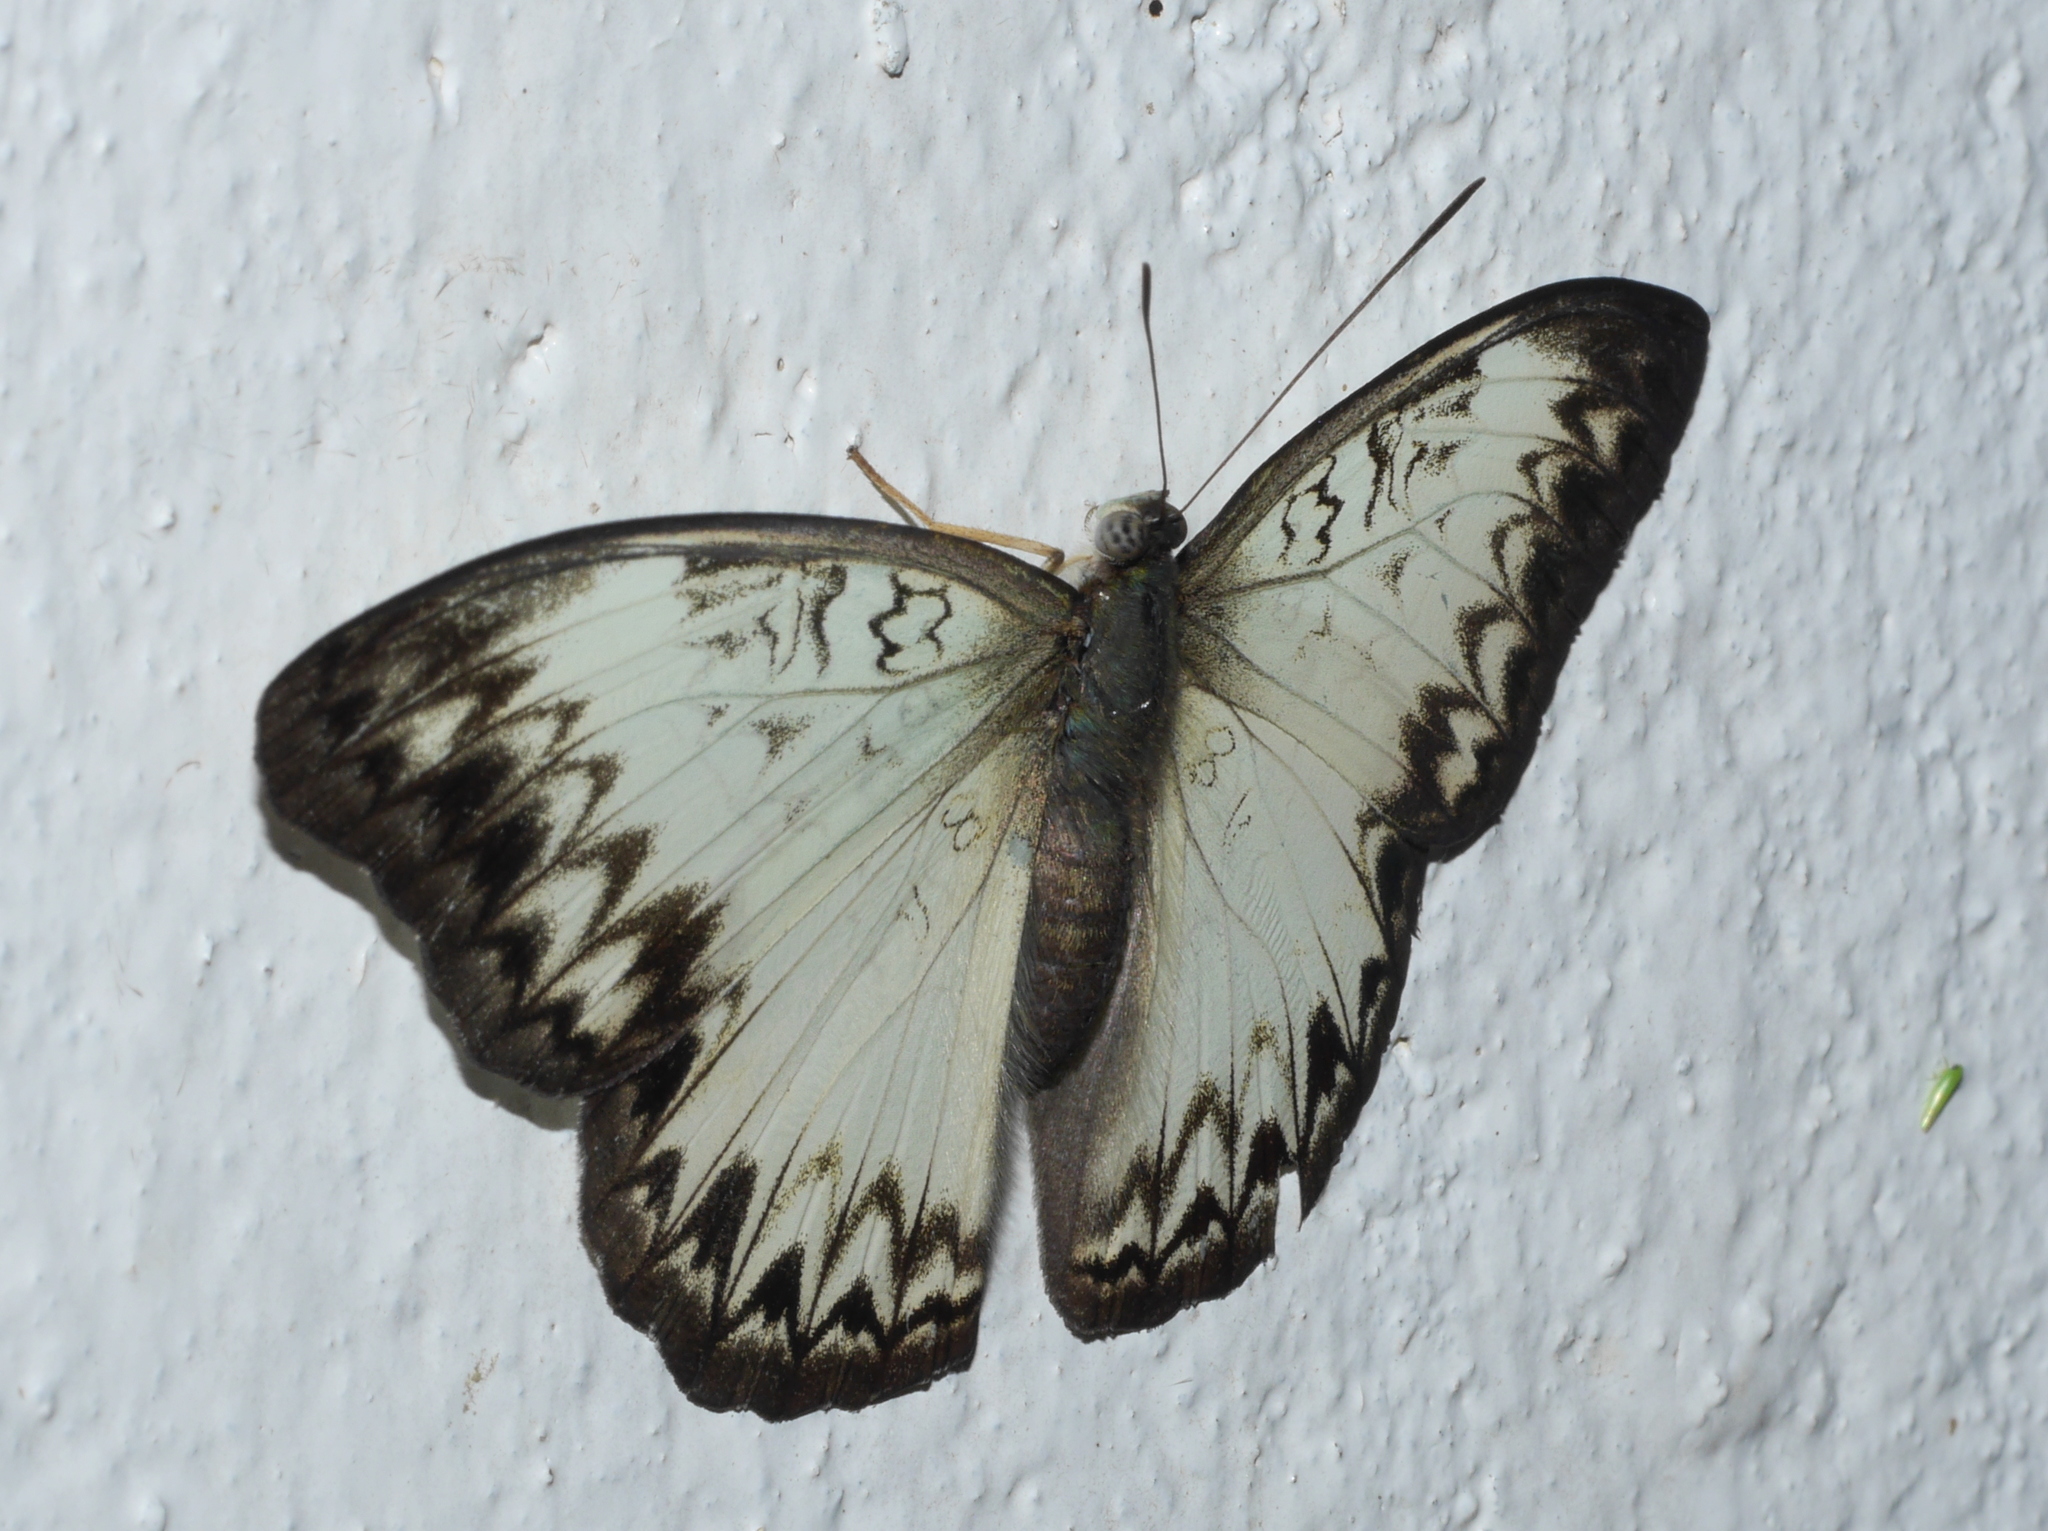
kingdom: Animalia
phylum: Arthropoda
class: Insecta
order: Lepidoptera
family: Nymphalidae
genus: Cymothoe
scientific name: Cymothoe caenis
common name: Common glider
